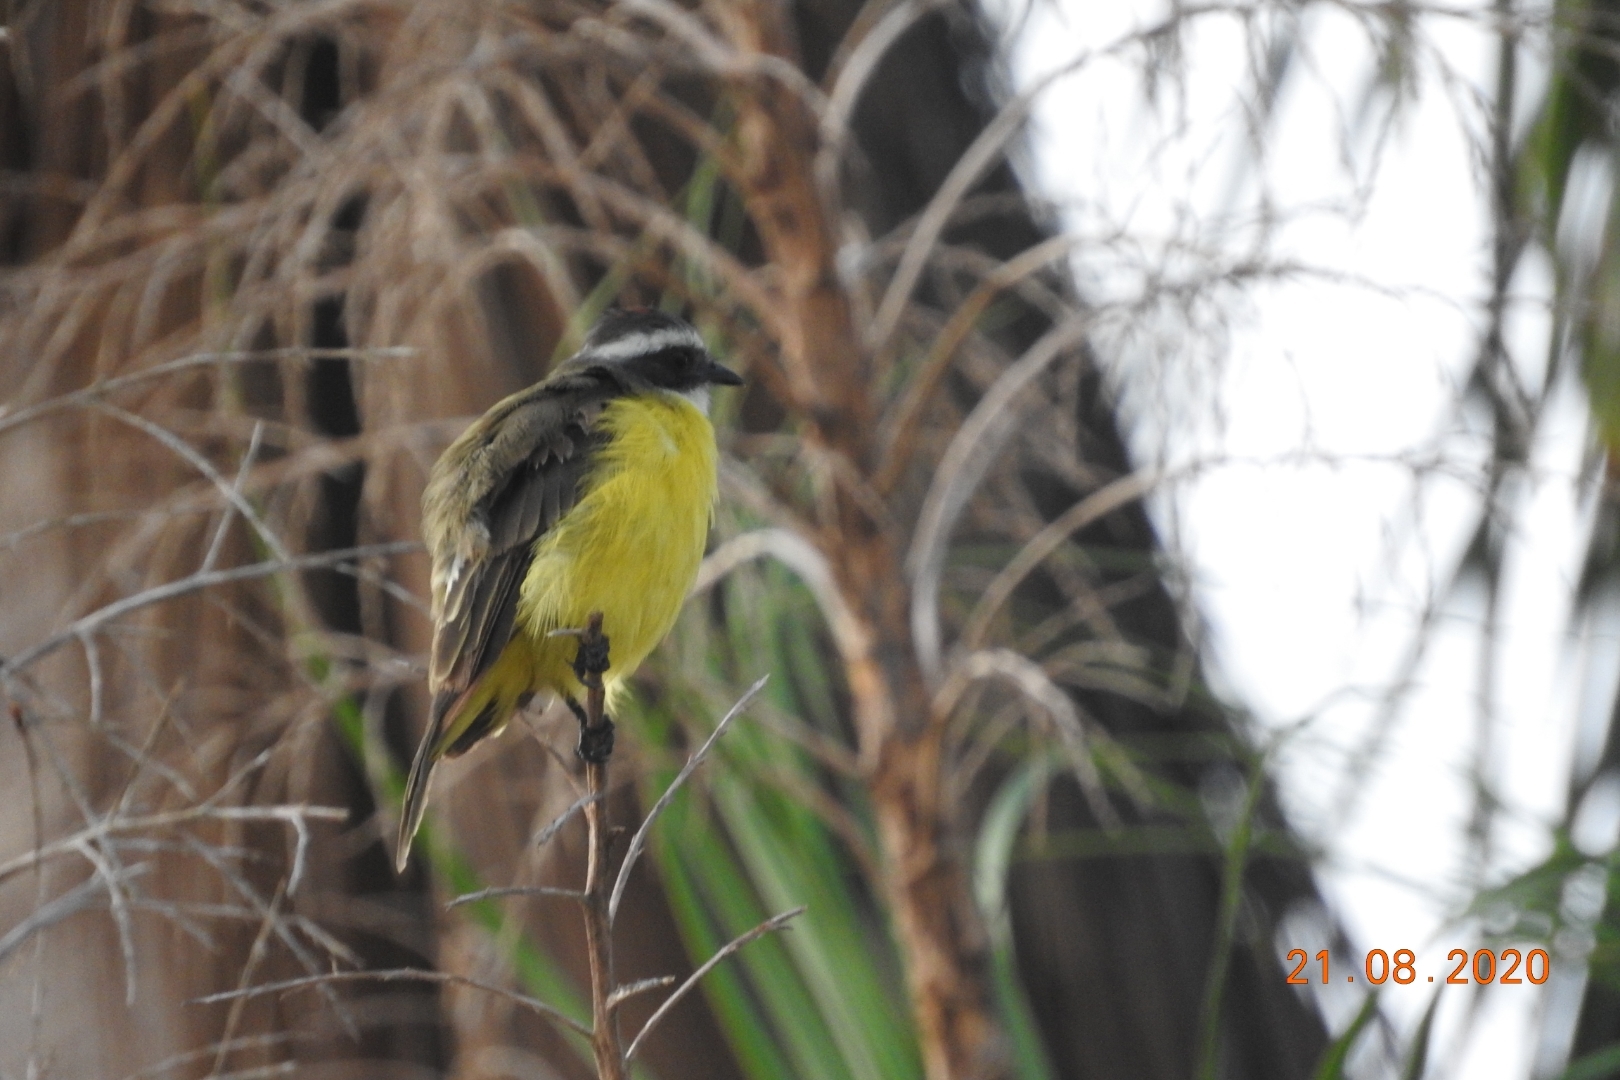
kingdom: Animalia
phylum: Chordata
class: Aves
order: Passeriformes
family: Tyrannidae
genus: Myiozetetes
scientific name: Myiozetetes similis
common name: Social flycatcher
